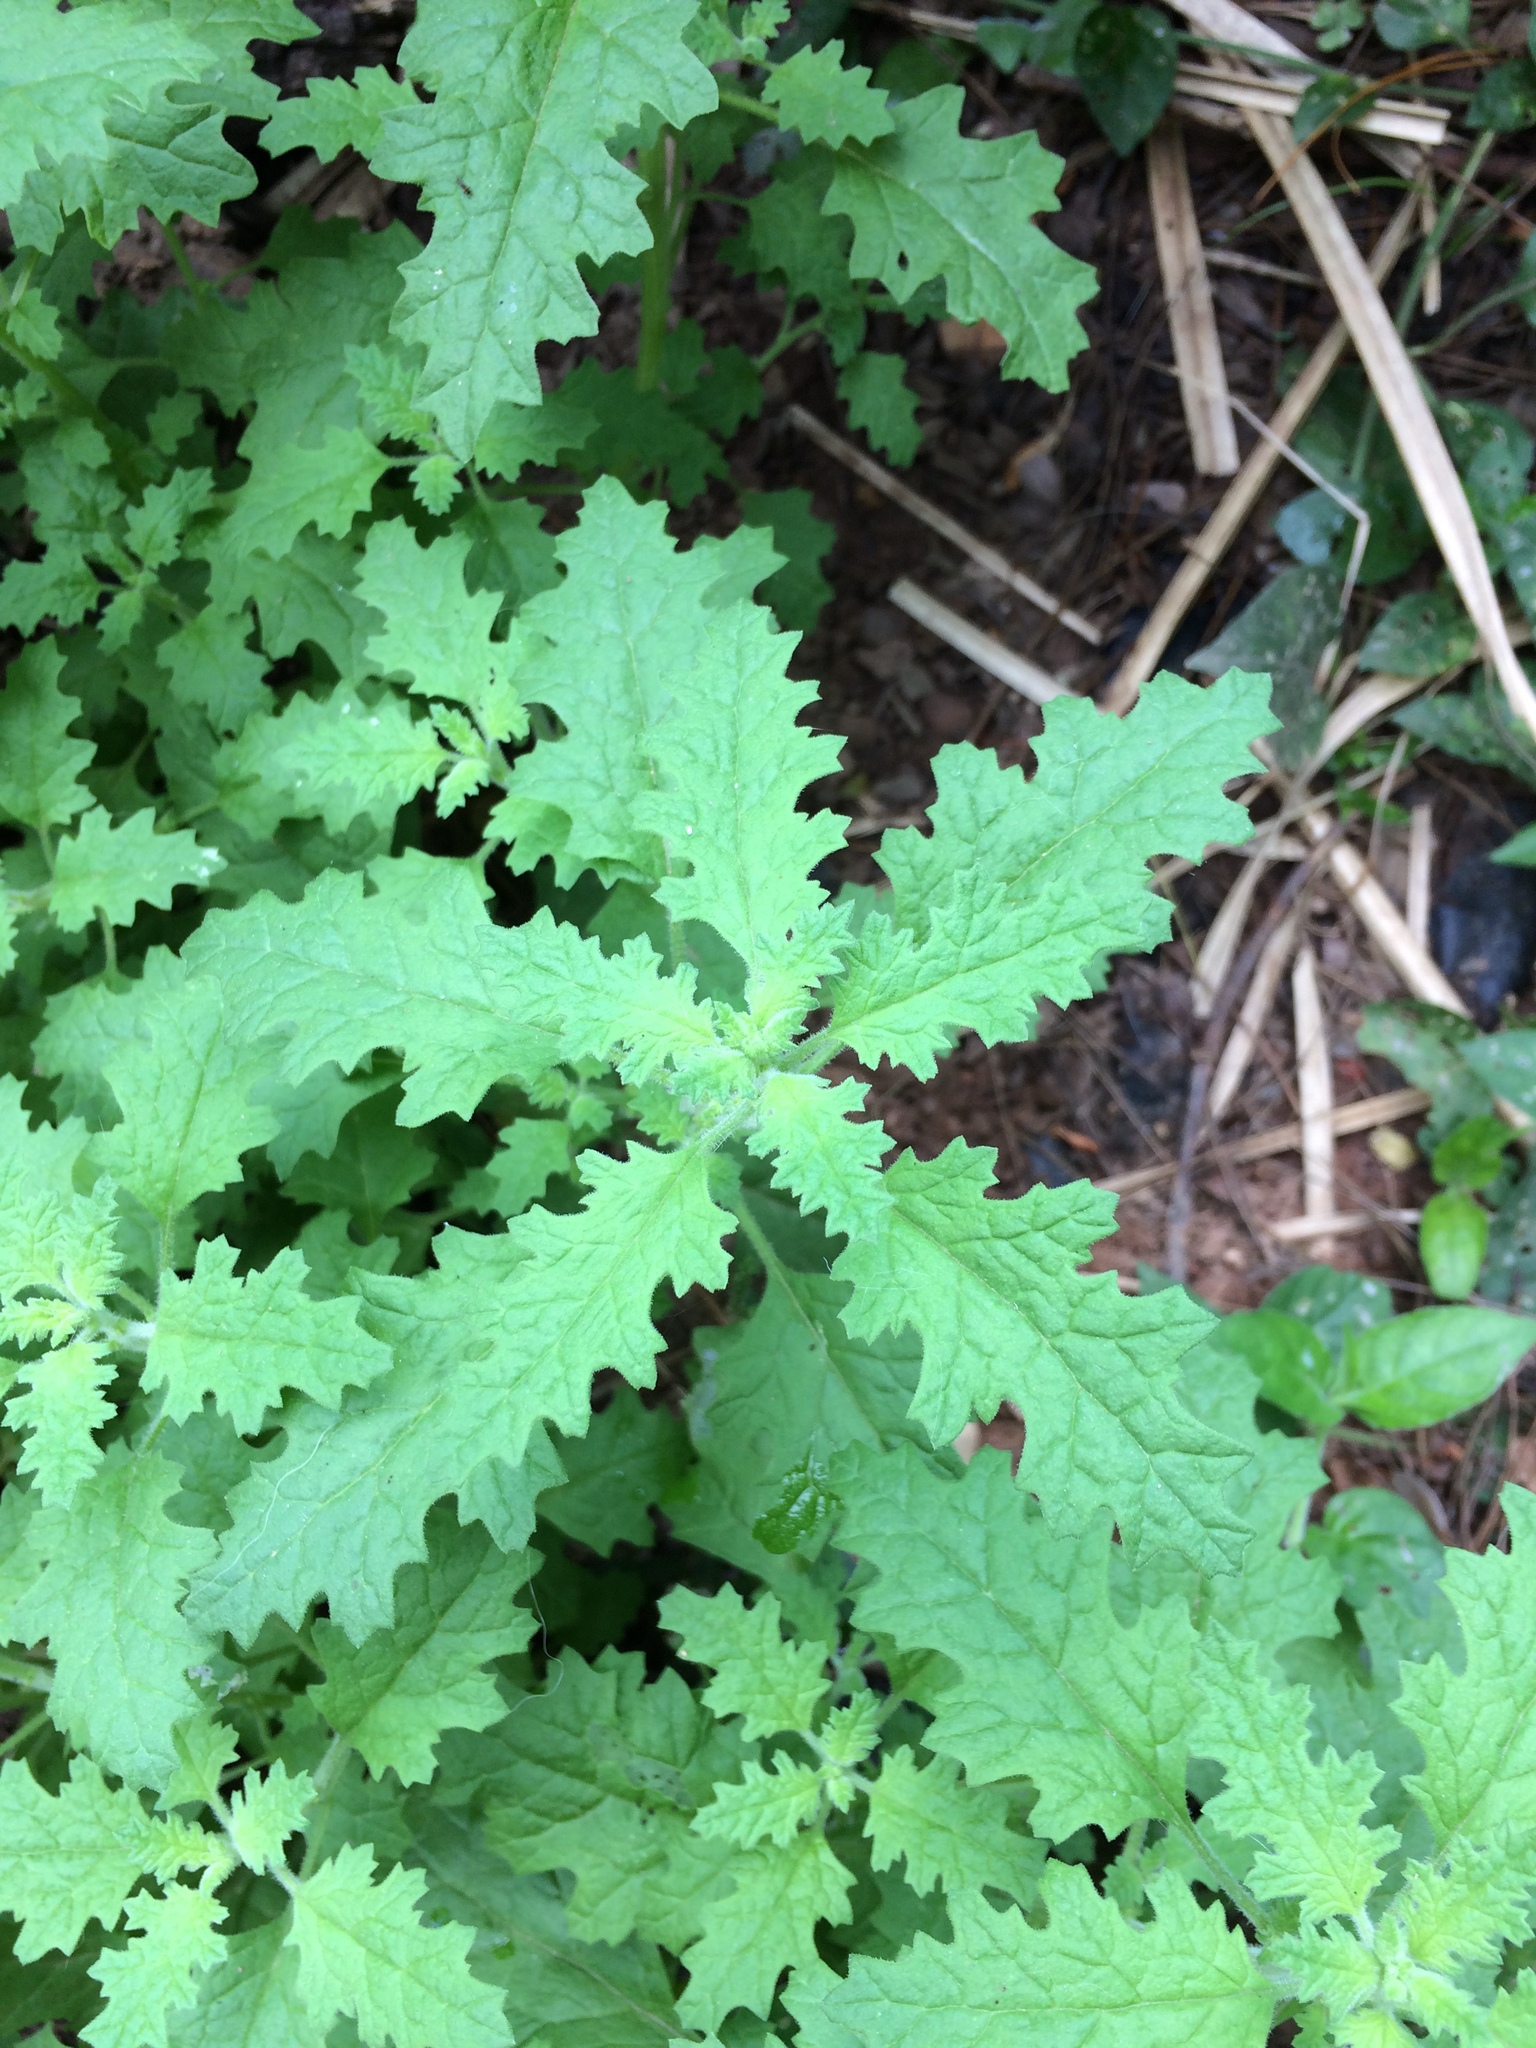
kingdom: Plantae
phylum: Tracheophyta
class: Magnoliopsida
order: Asterales
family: Asteraceae
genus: Berkheya
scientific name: Berkheya bipinnatifida
